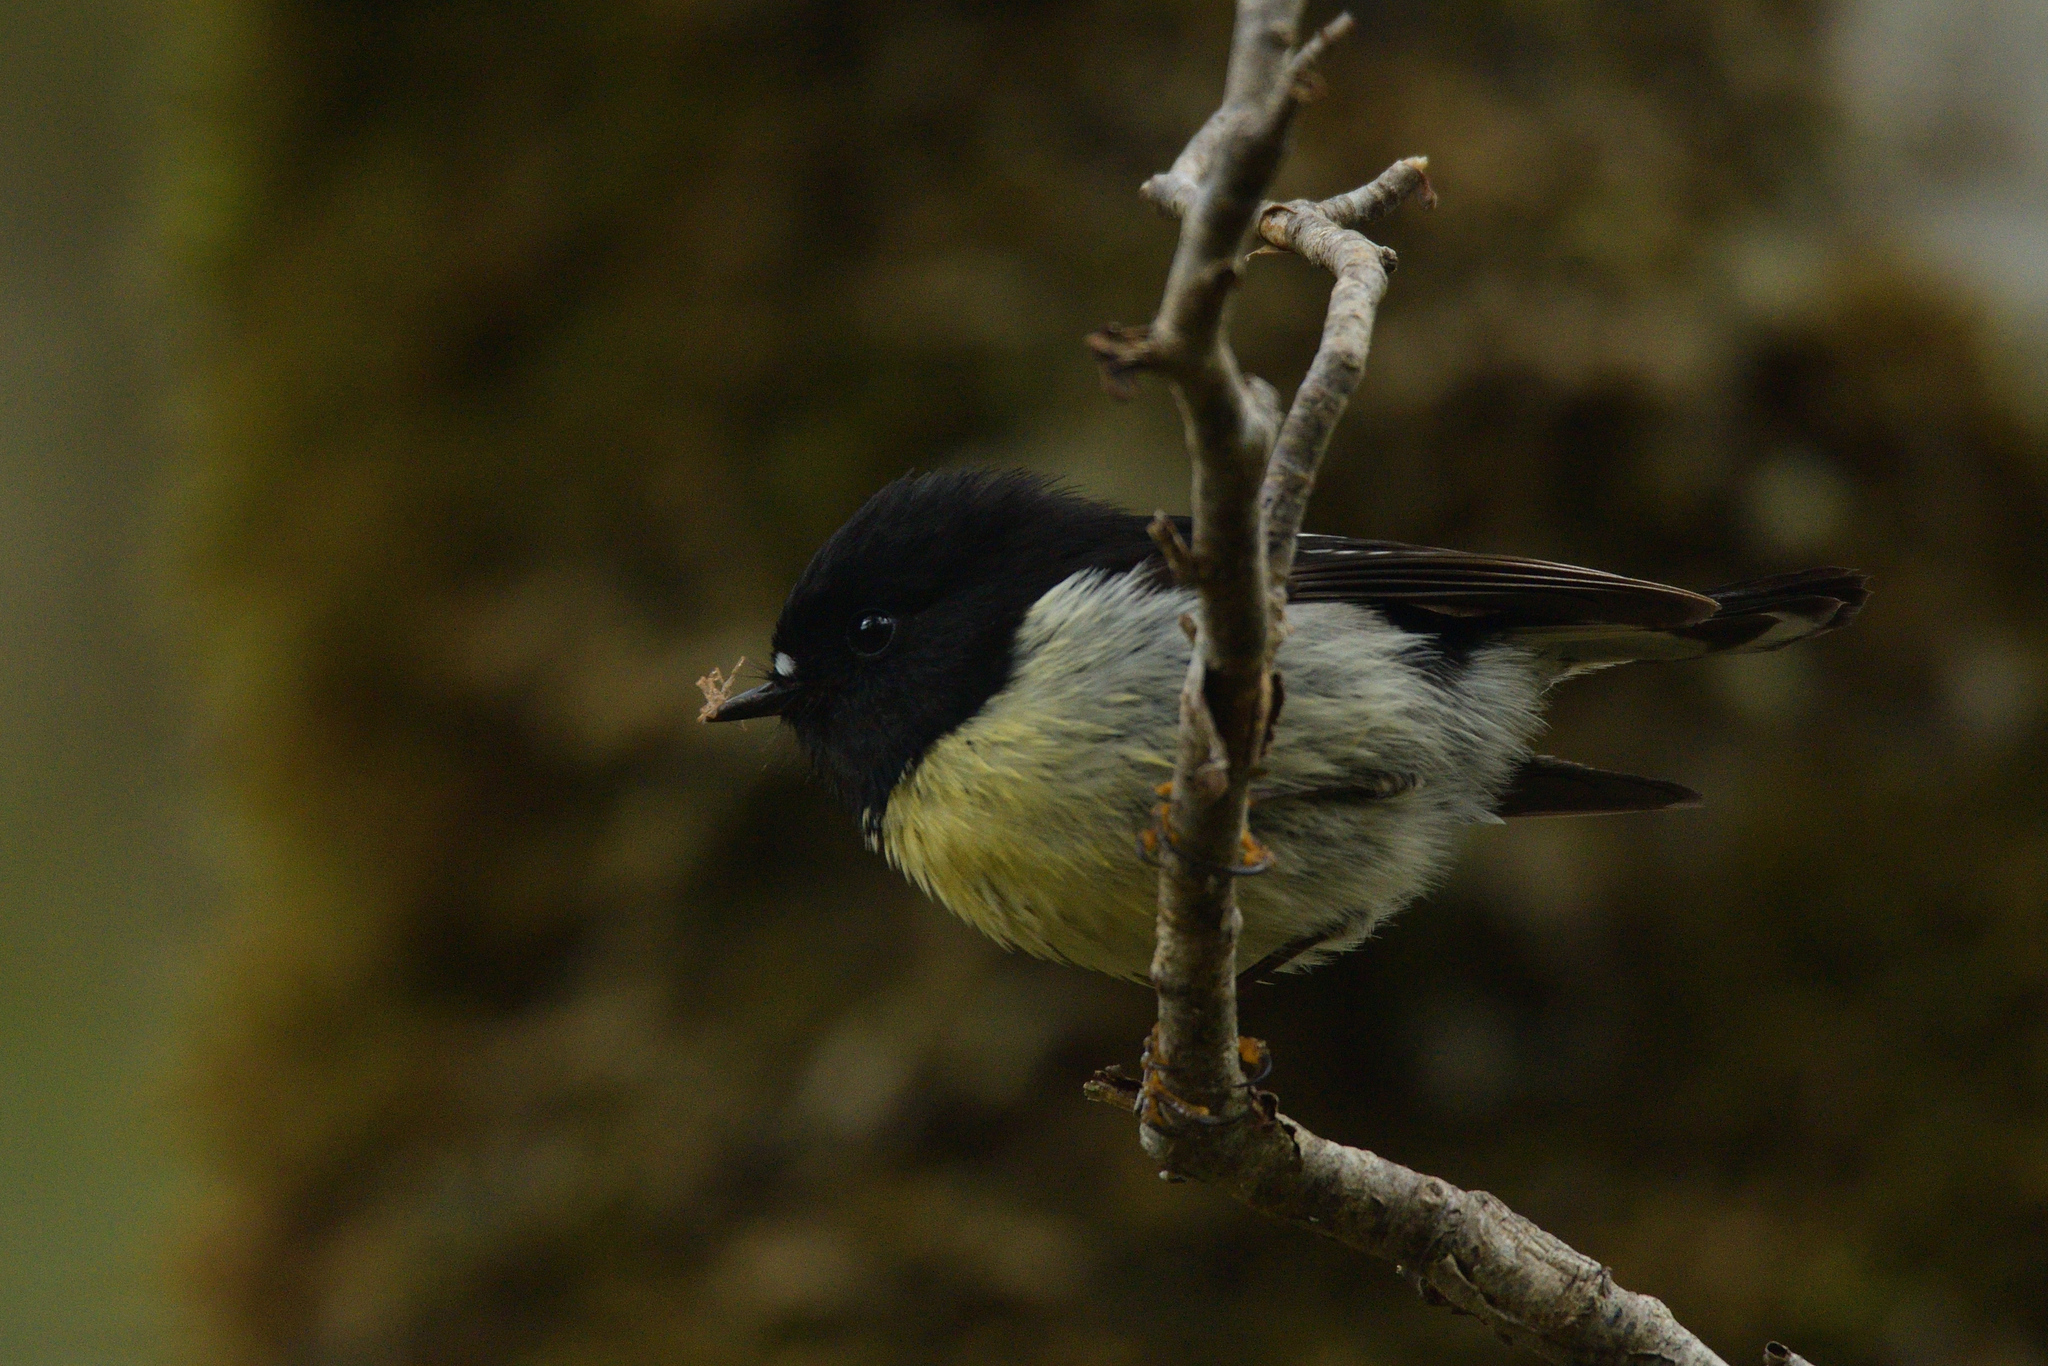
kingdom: Animalia
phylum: Chordata
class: Aves
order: Passeriformes
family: Petroicidae
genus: Petroica
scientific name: Petroica macrocephala
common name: Tomtit
